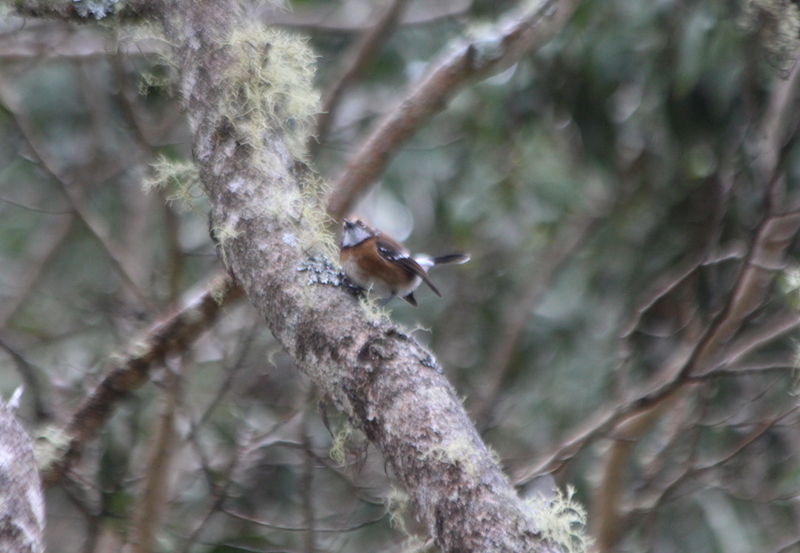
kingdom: Animalia
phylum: Chordata
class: Aves
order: Passeriformes
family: Monarchidae
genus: Chasiempis
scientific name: Chasiempis sandwichensis
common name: Hawaii elepaio
